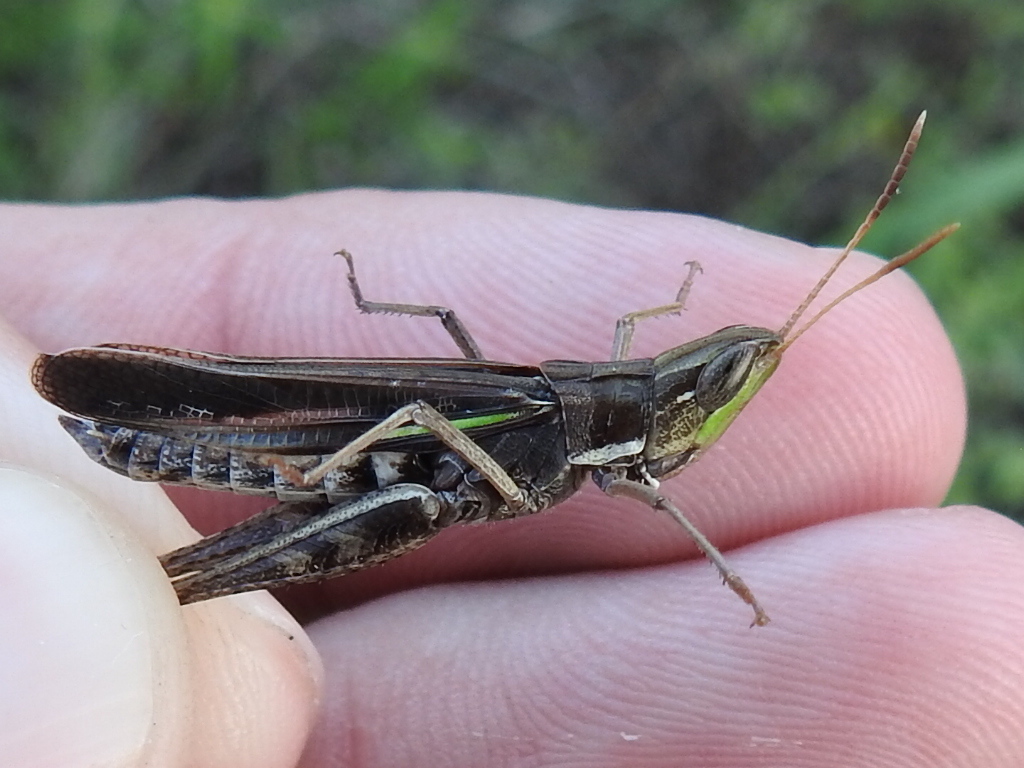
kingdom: Animalia
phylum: Arthropoda
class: Insecta
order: Orthoptera
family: Acrididae
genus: Syrbula
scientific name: Syrbula montezuma
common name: Montezuma's grasshopper
